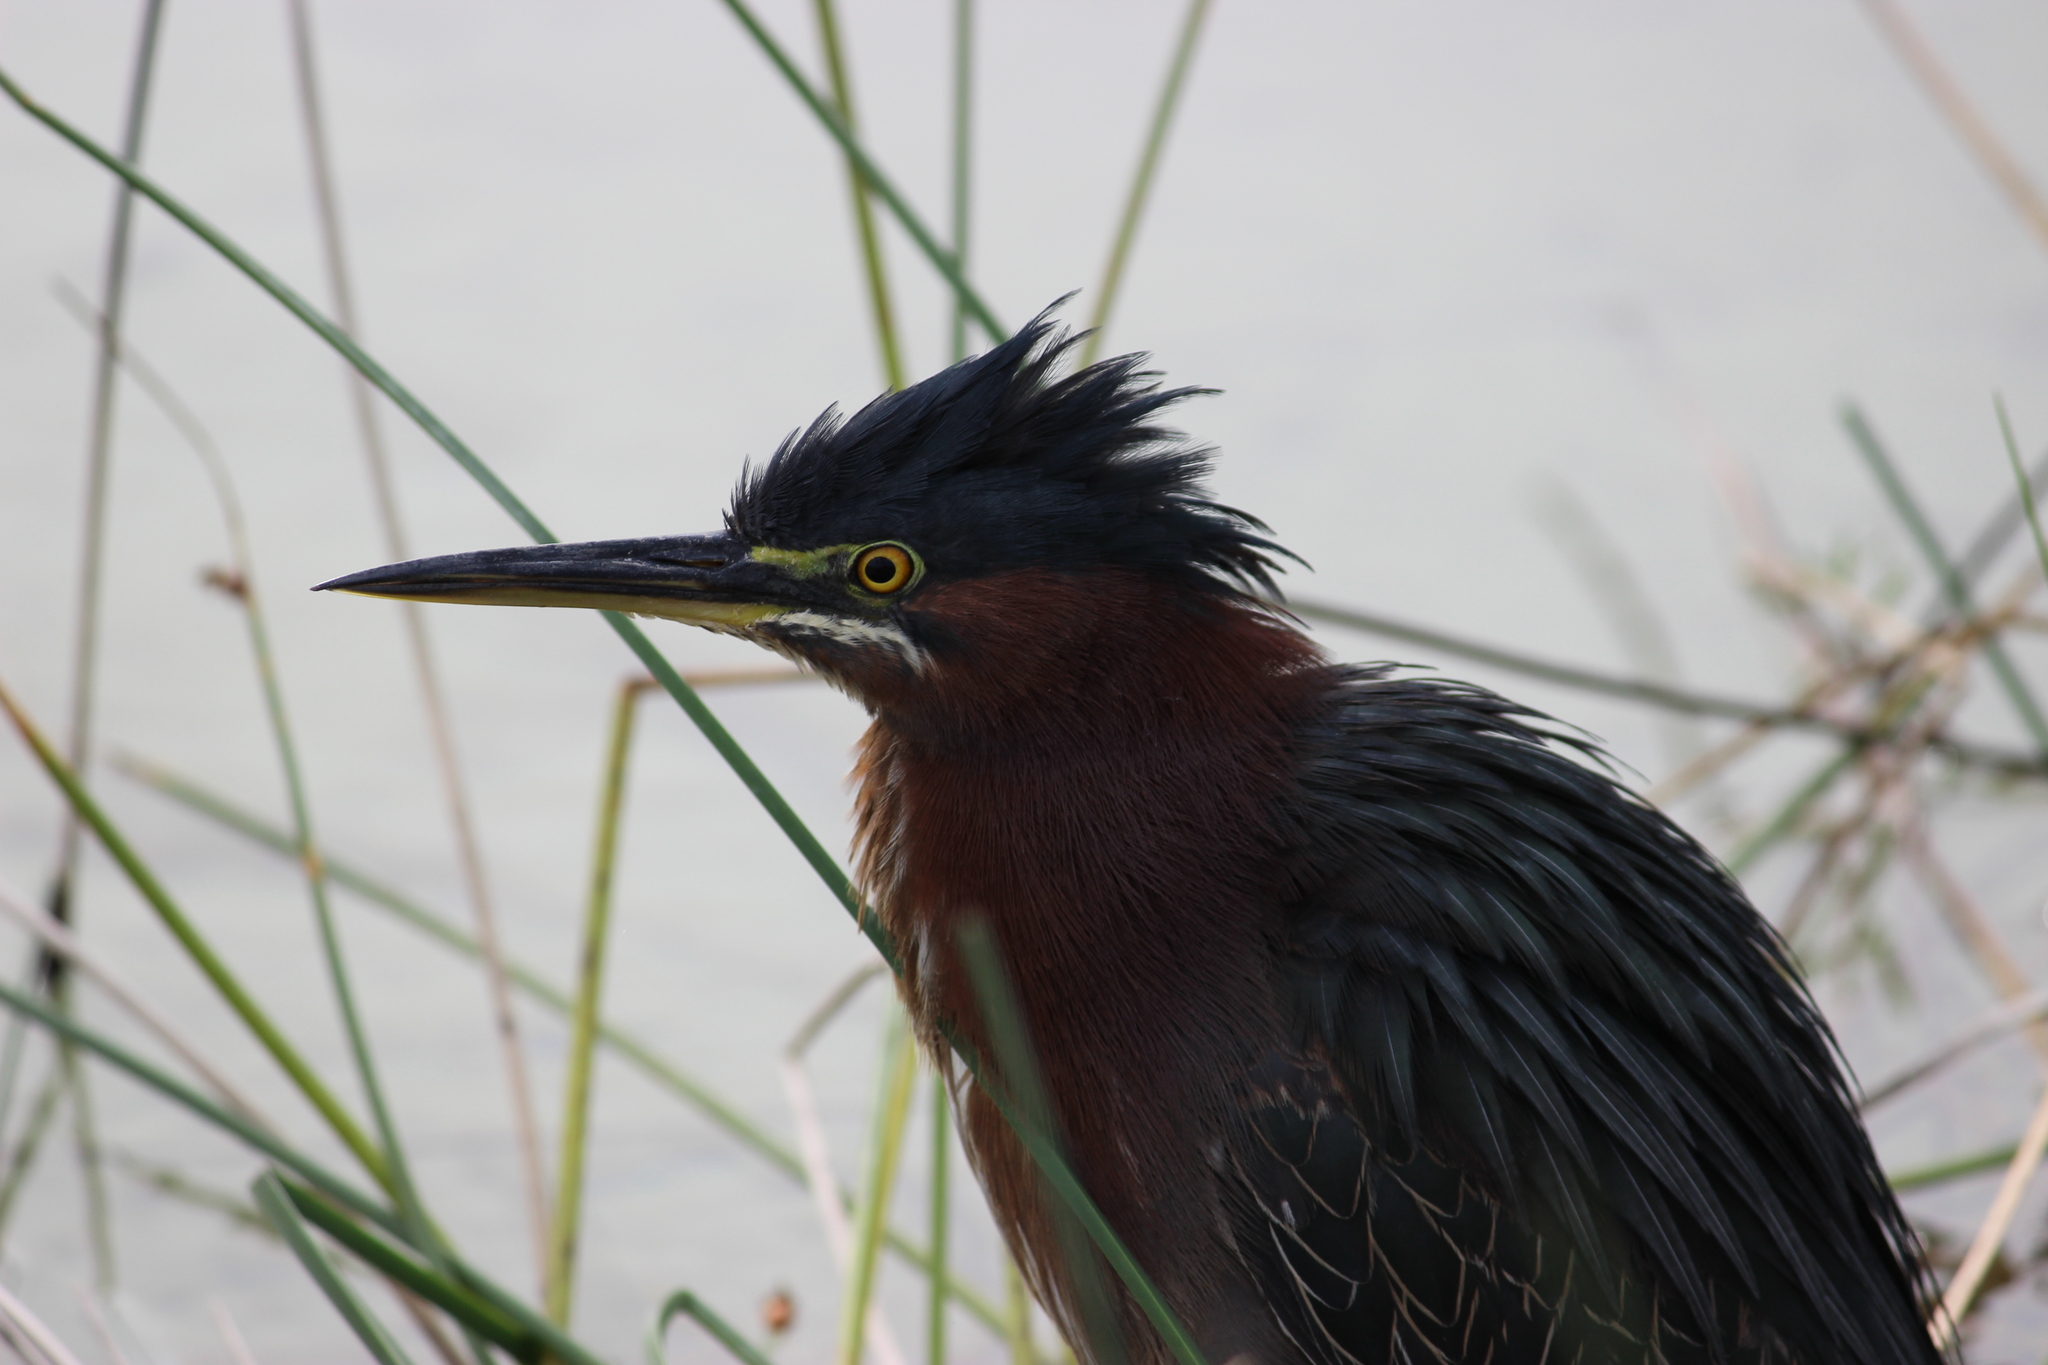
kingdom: Animalia
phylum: Chordata
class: Aves
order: Pelecaniformes
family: Ardeidae
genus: Butorides
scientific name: Butorides virescens
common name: Green heron
